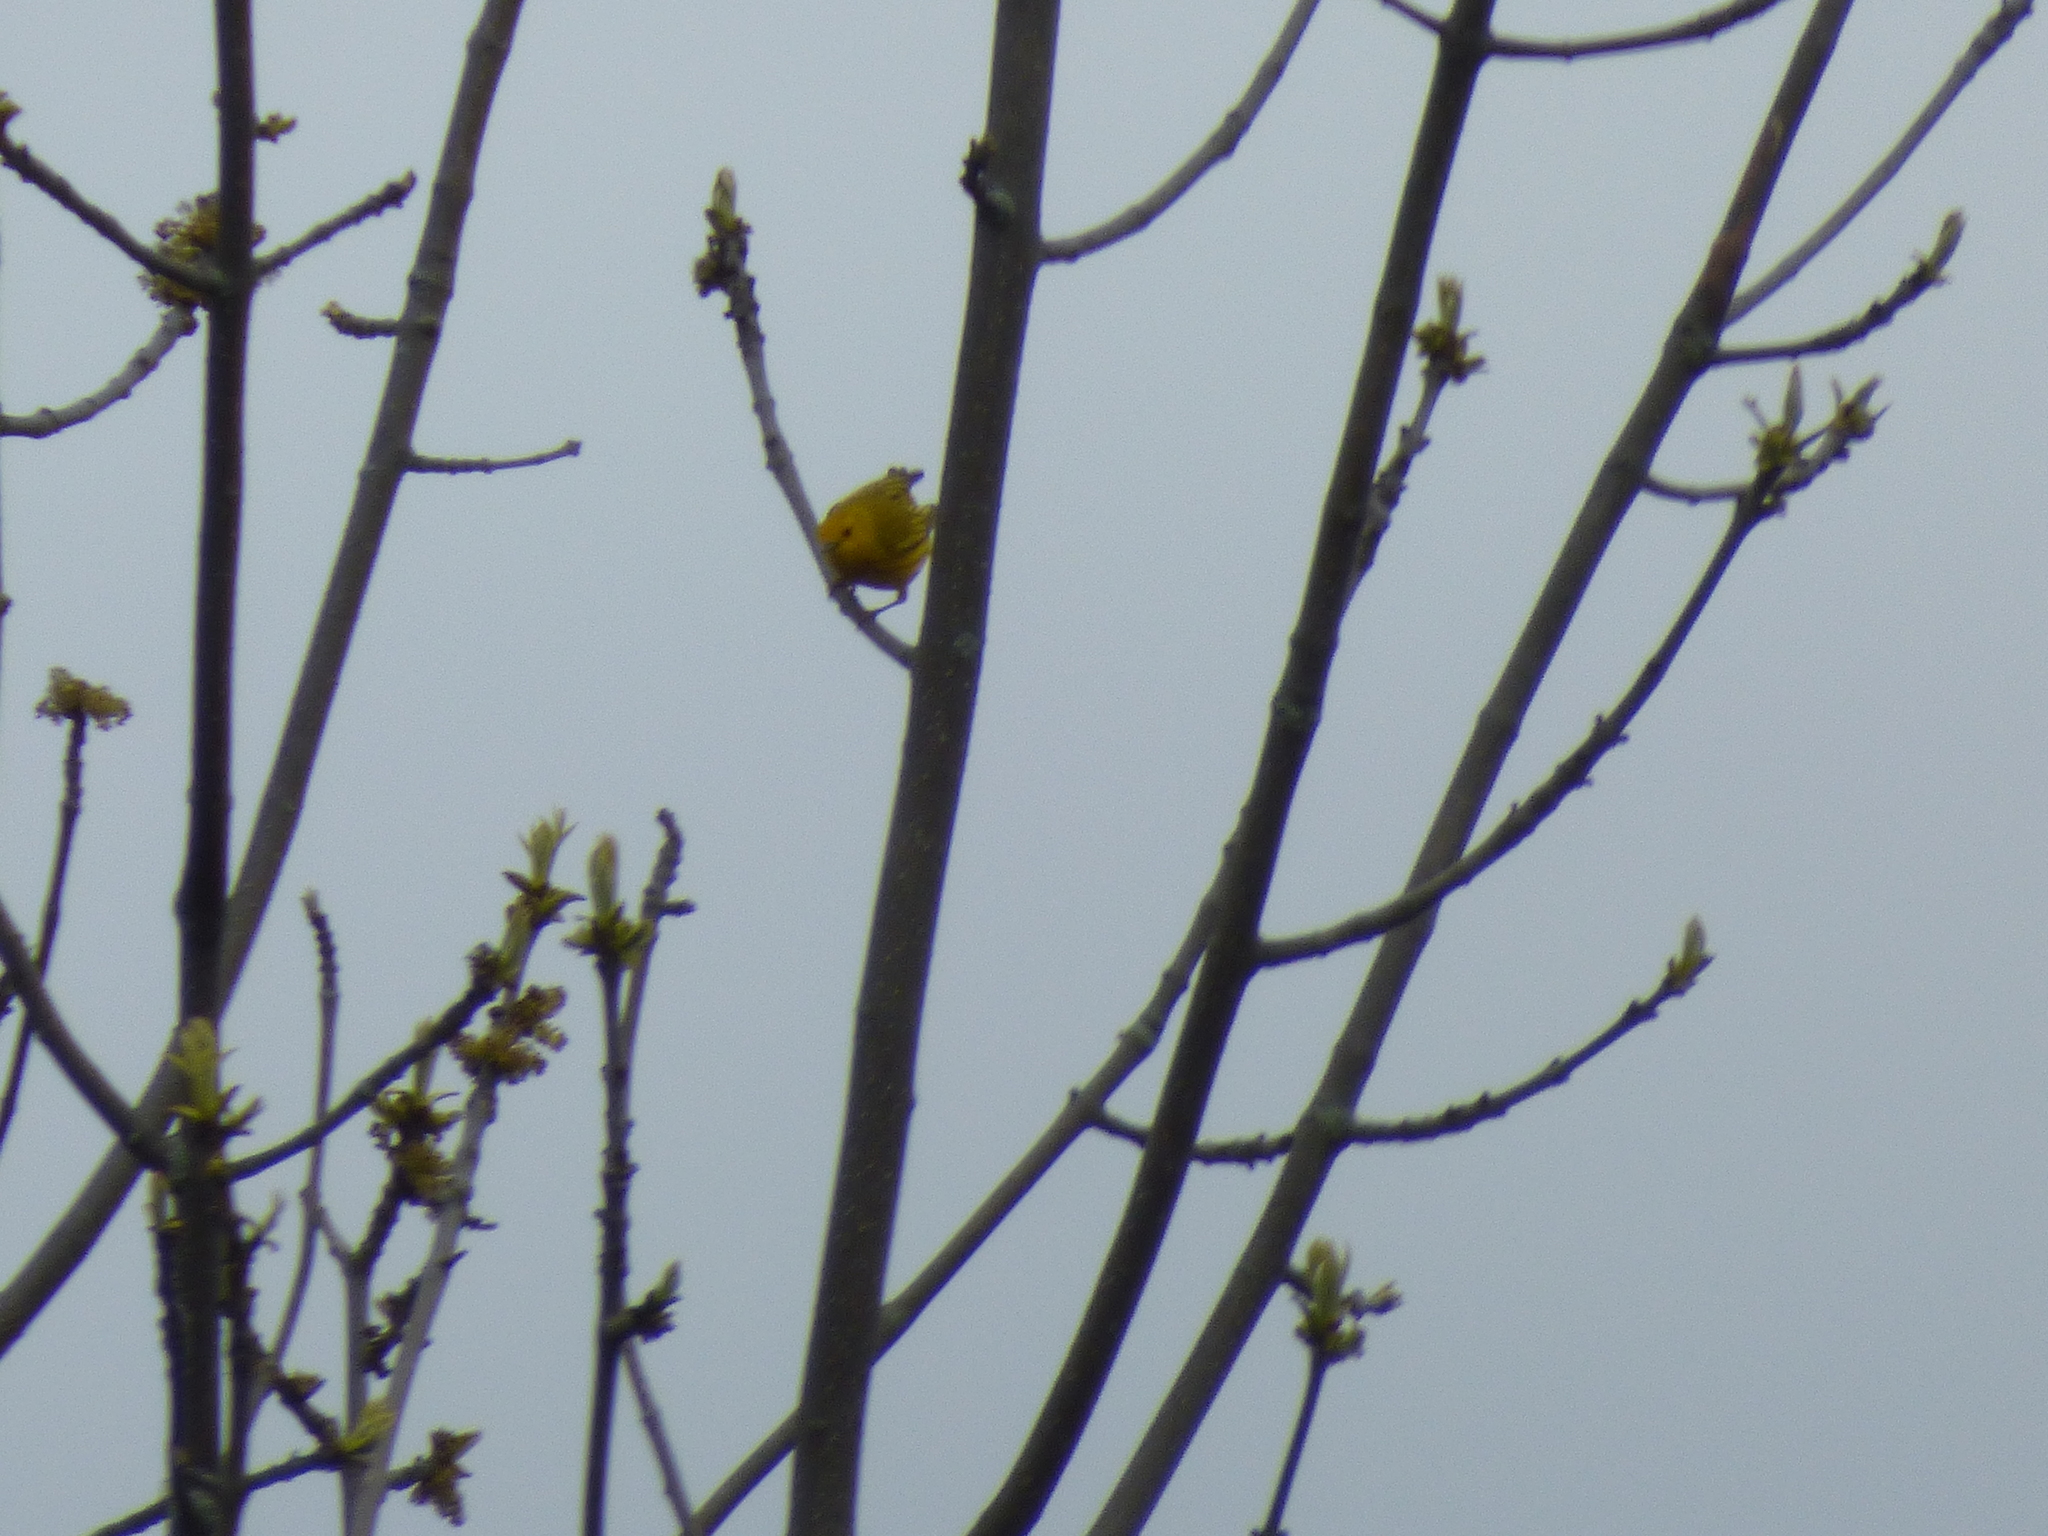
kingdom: Animalia
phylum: Chordata
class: Aves
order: Passeriformes
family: Parulidae
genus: Setophaga
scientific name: Setophaga petechia
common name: Yellow warbler
